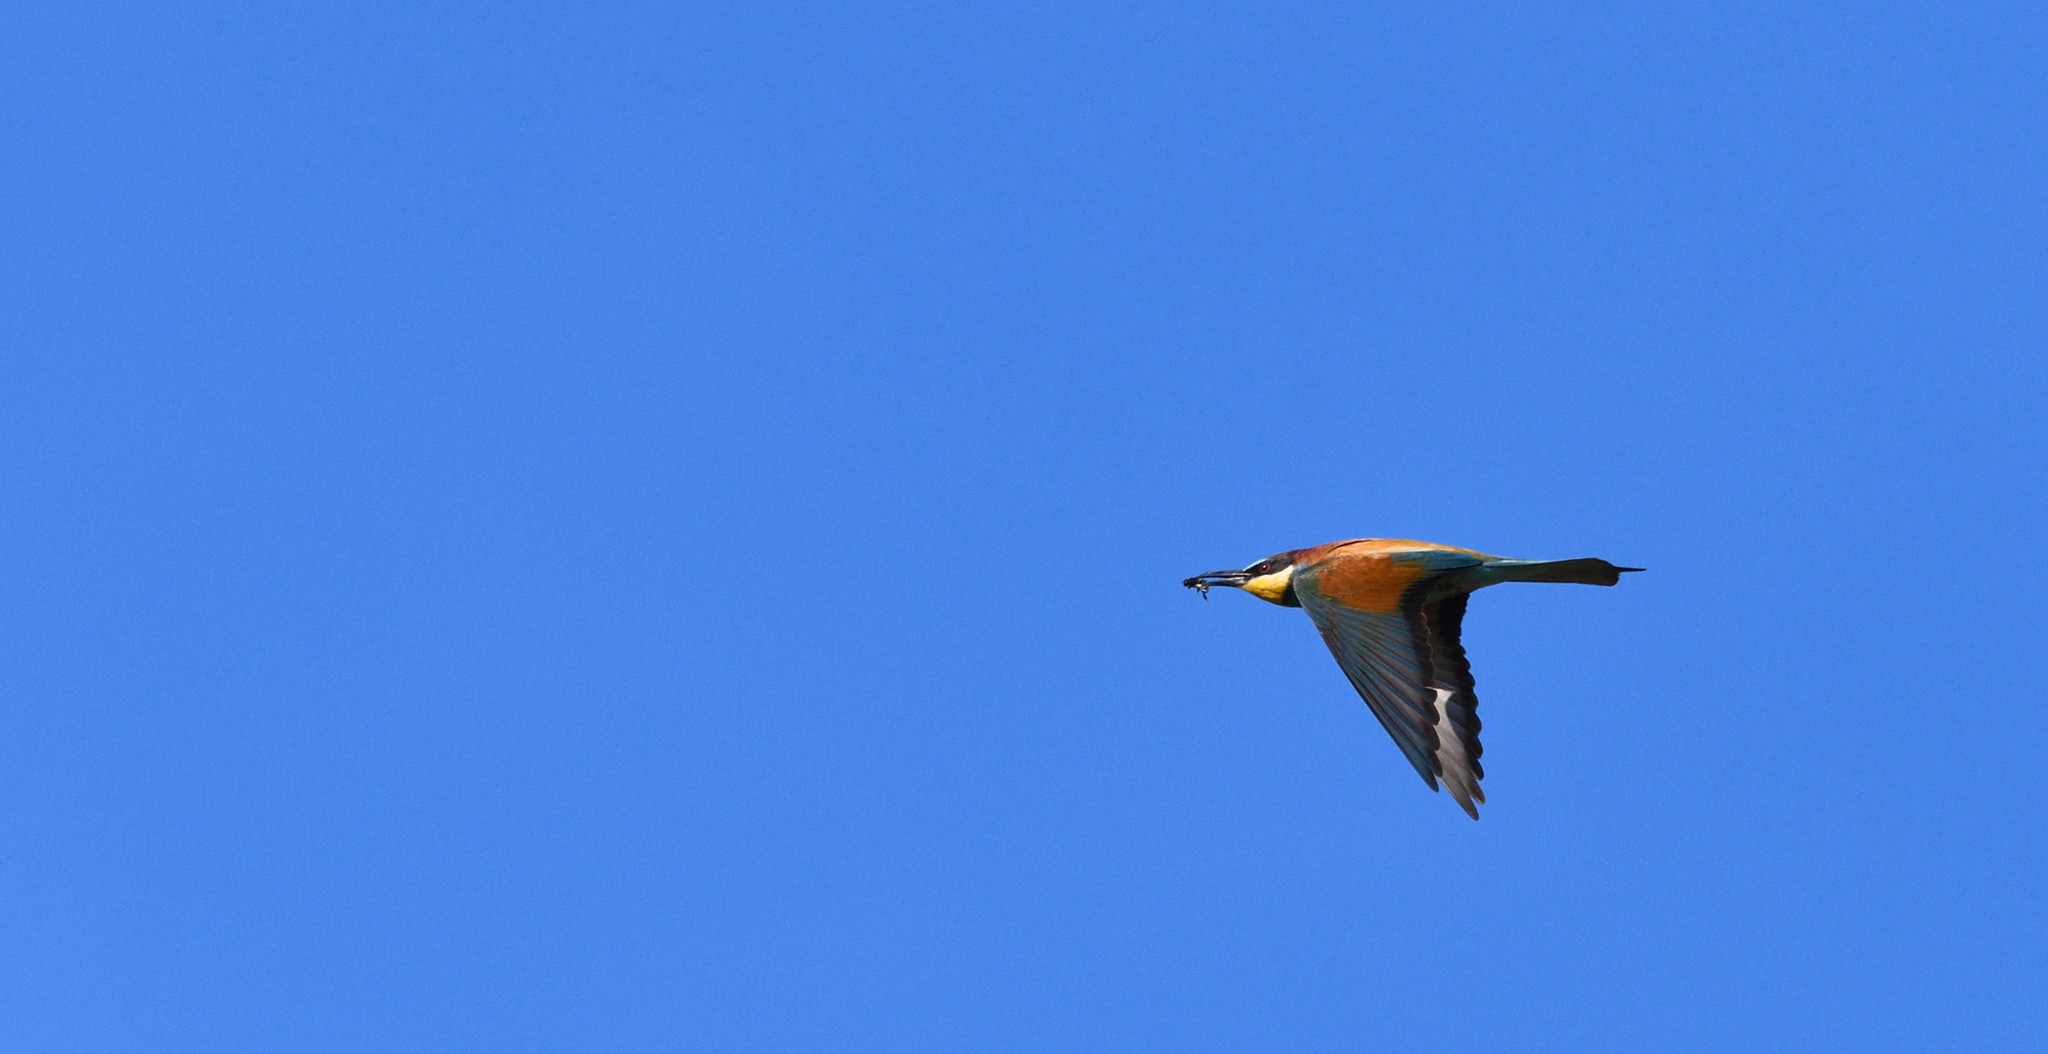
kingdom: Animalia
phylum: Chordata
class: Aves
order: Coraciiformes
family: Meropidae
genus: Merops
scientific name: Merops apiaster
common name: European bee-eater
